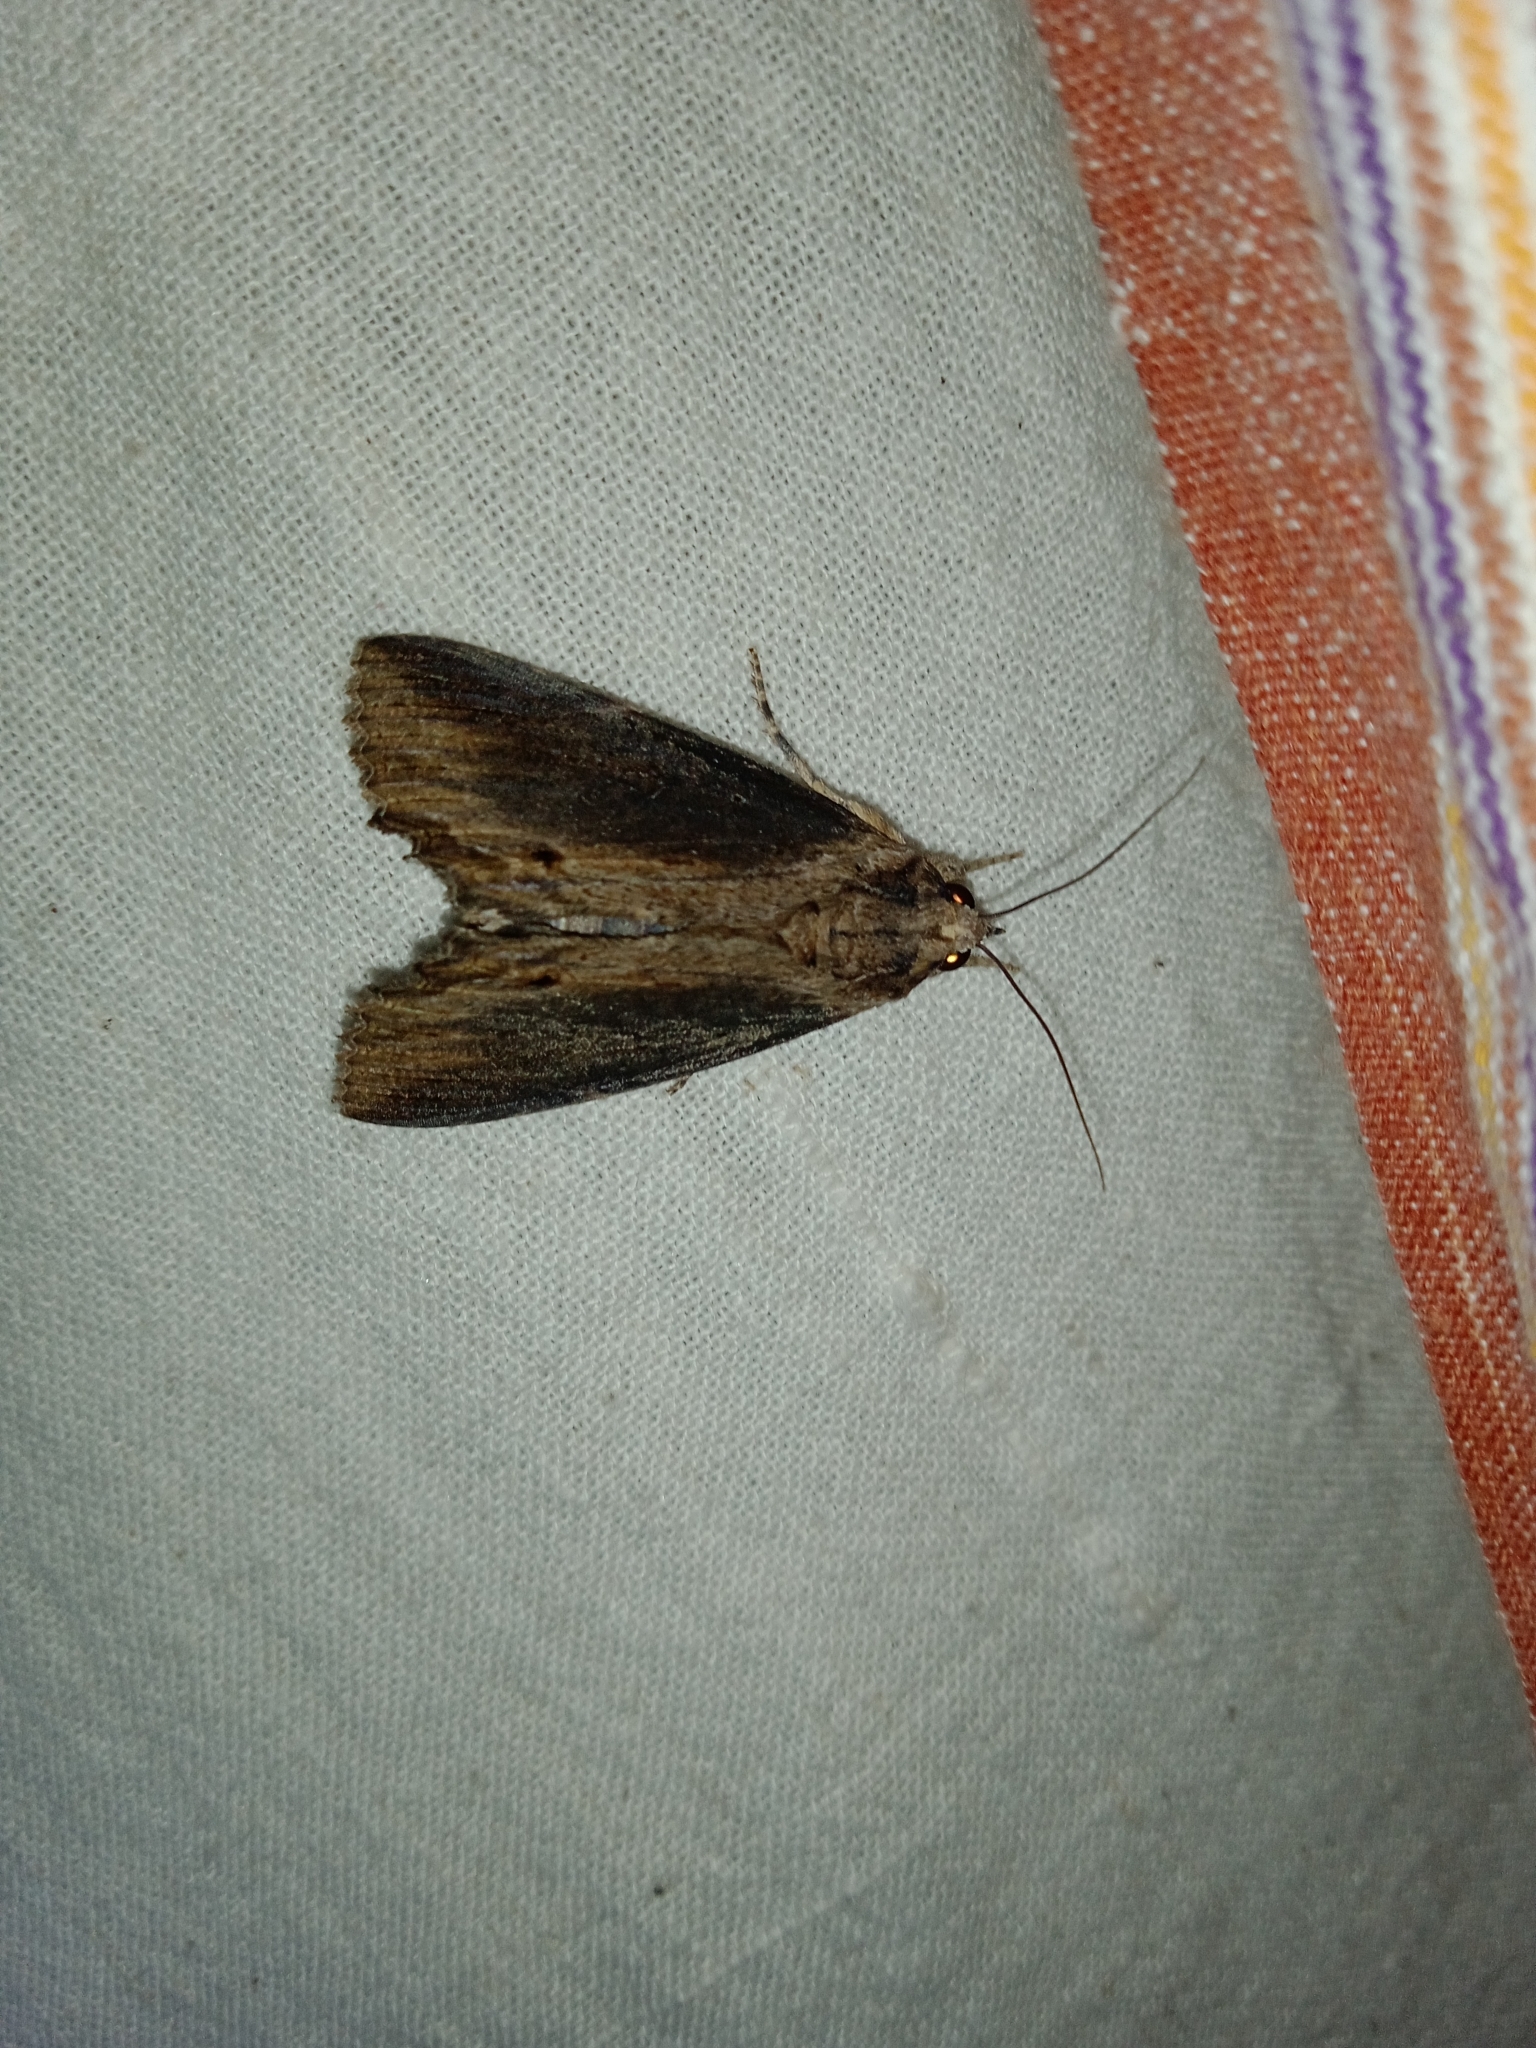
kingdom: Animalia
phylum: Arthropoda
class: Insecta
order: Lepidoptera
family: Erebidae
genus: Ercheia
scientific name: Ercheia cyllaria
